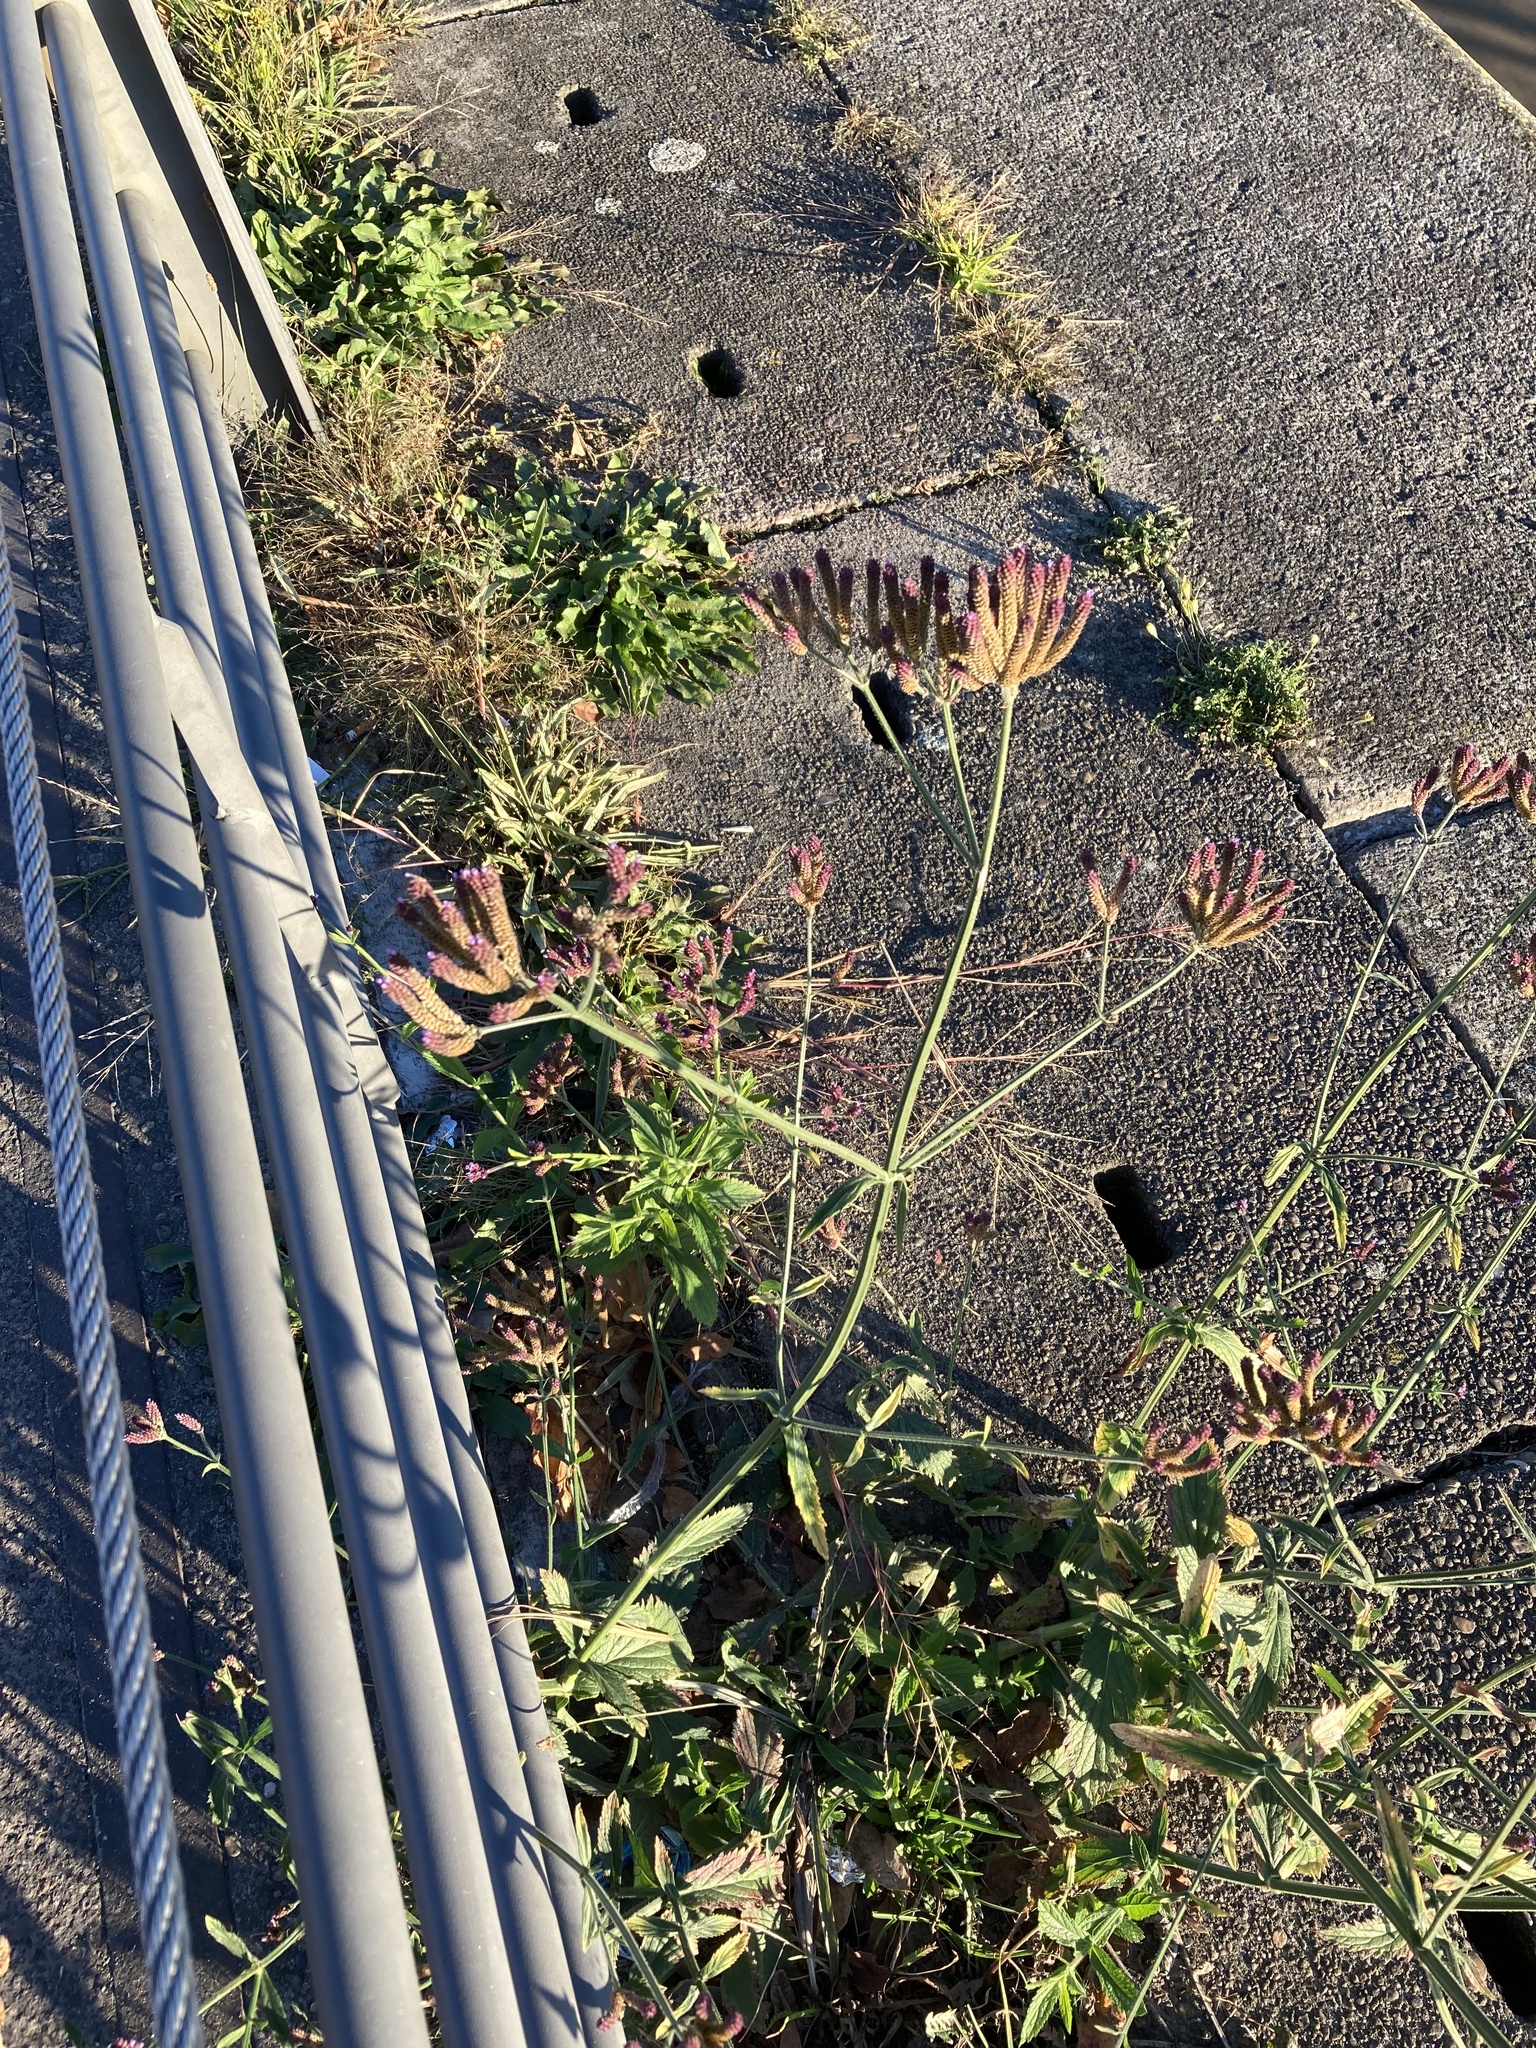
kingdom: Plantae
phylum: Tracheophyta
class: Magnoliopsida
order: Lamiales
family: Verbenaceae
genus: Verbena
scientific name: Verbena bonariensis
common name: Purpletop vervain
